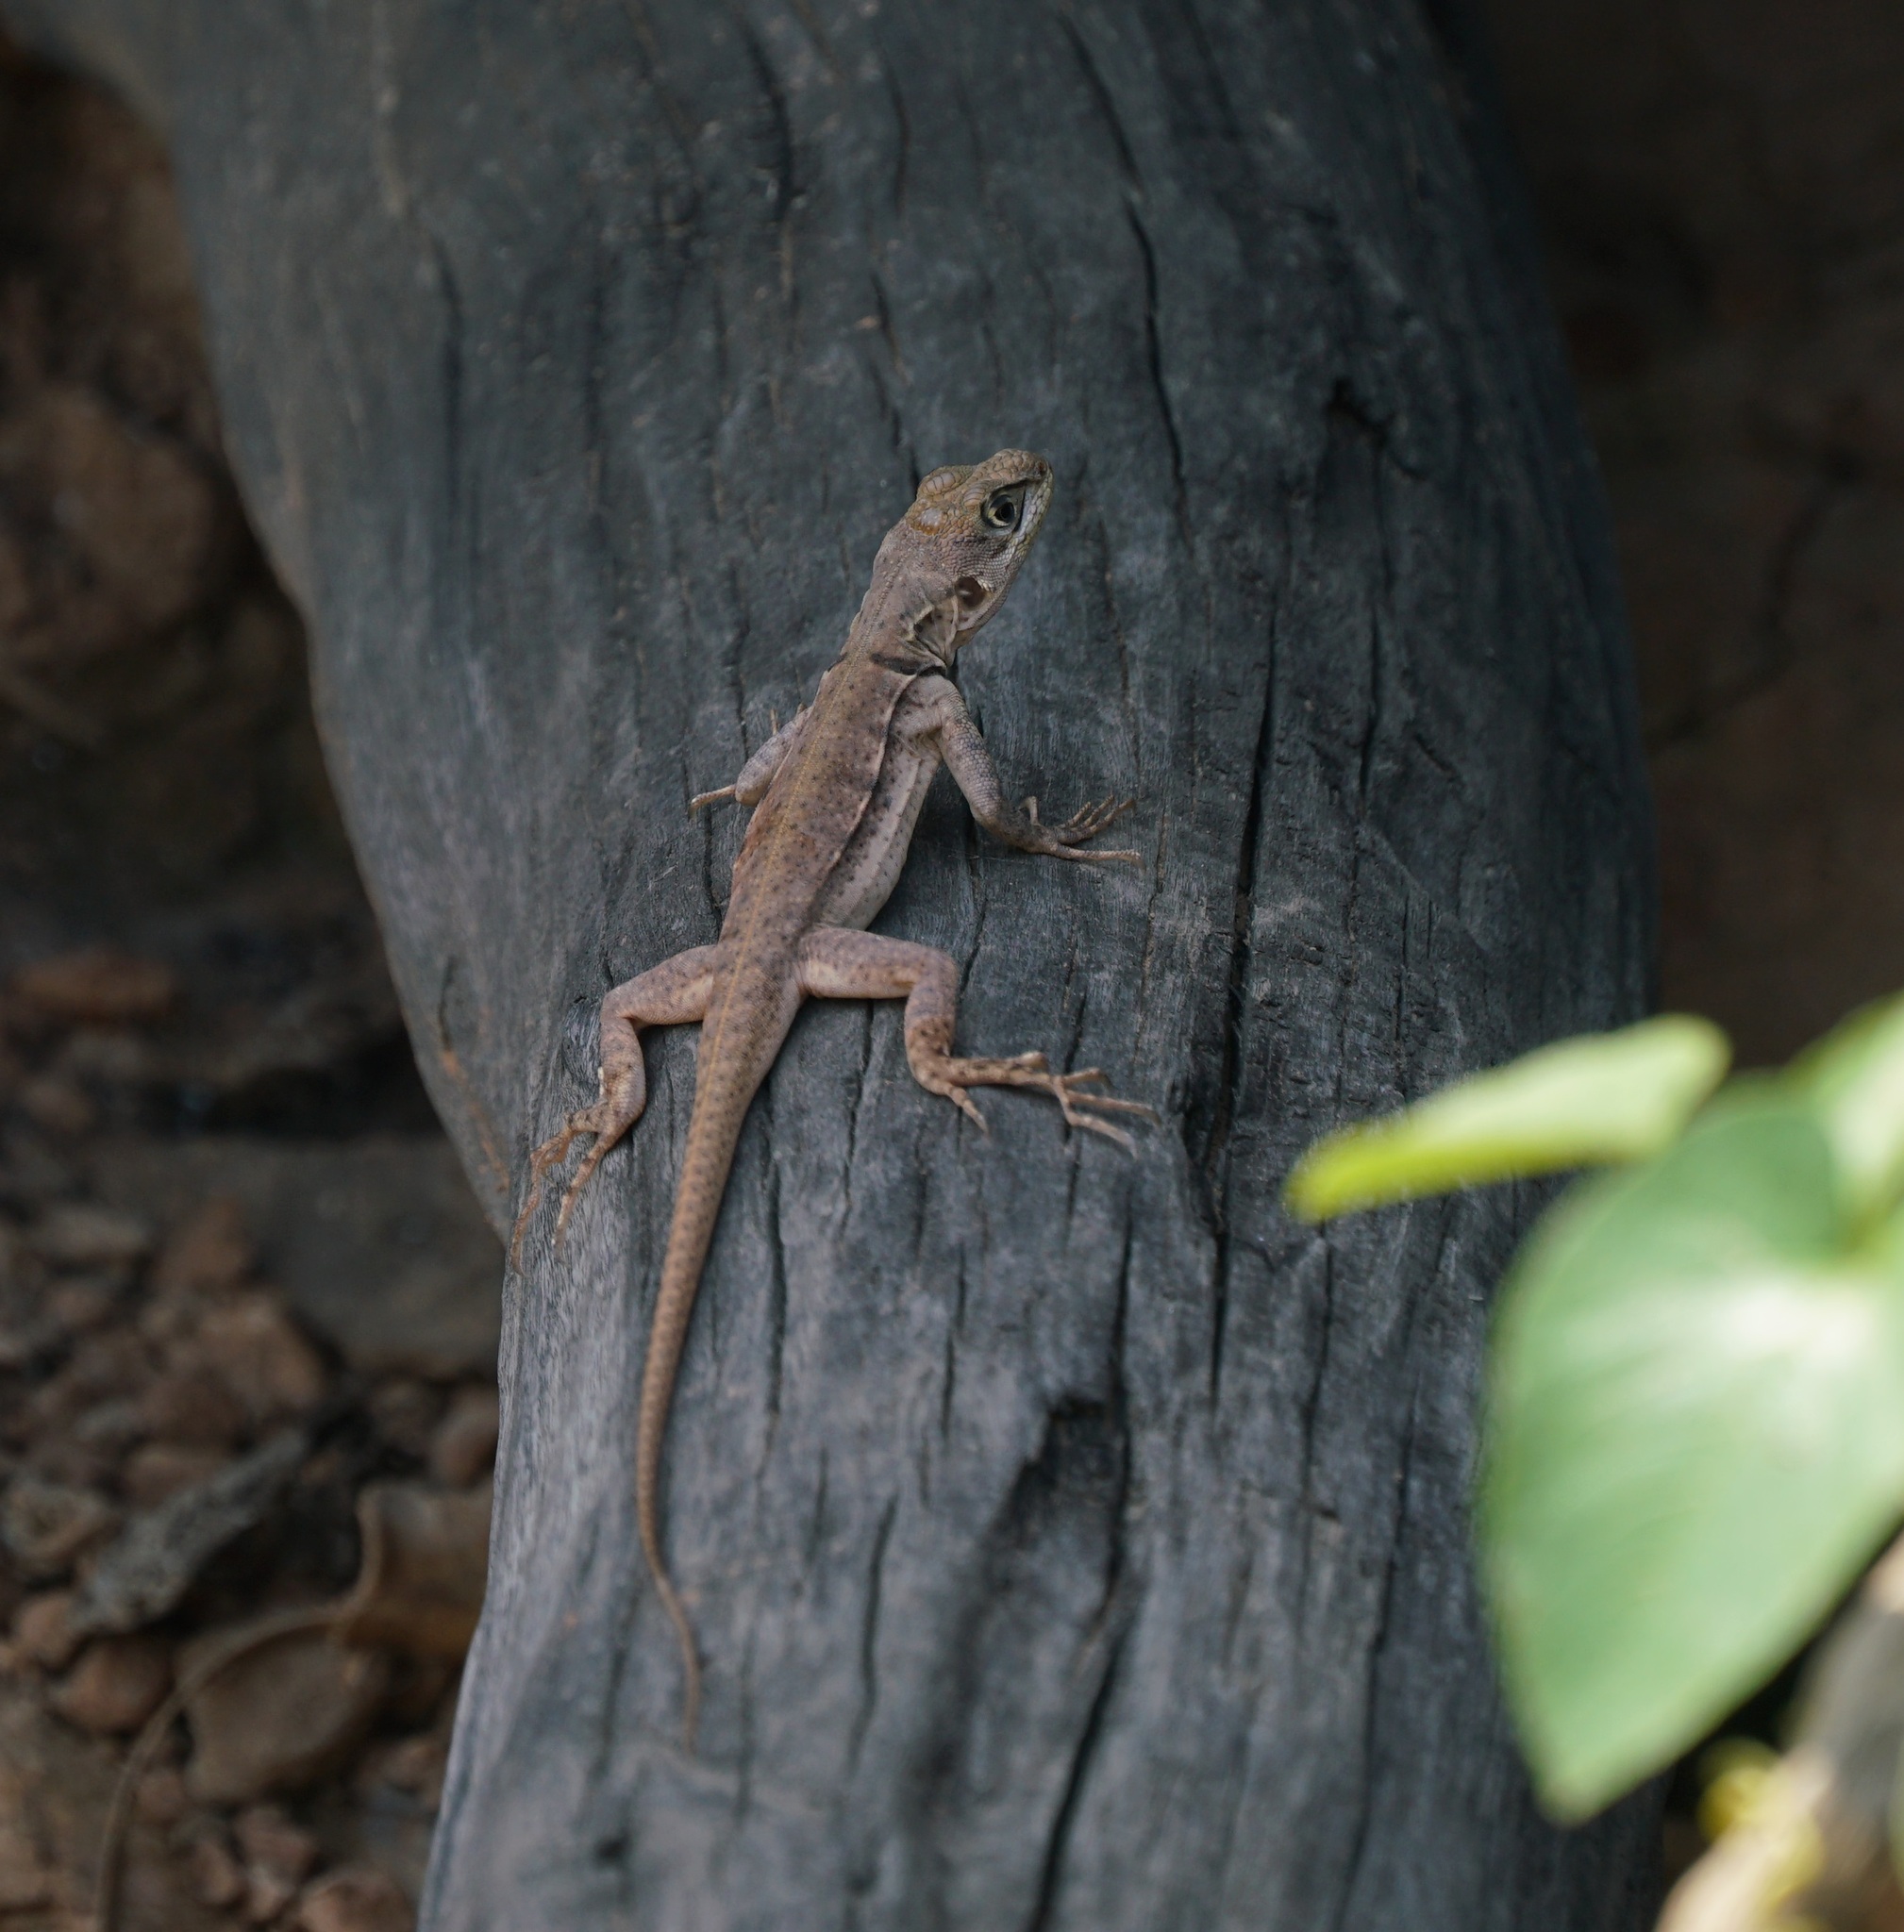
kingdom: Animalia
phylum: Chordata
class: Squamata
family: Tropiduridae
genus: Tropidurus
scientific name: Tropidurus melanopleurus
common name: Black lava lizard
